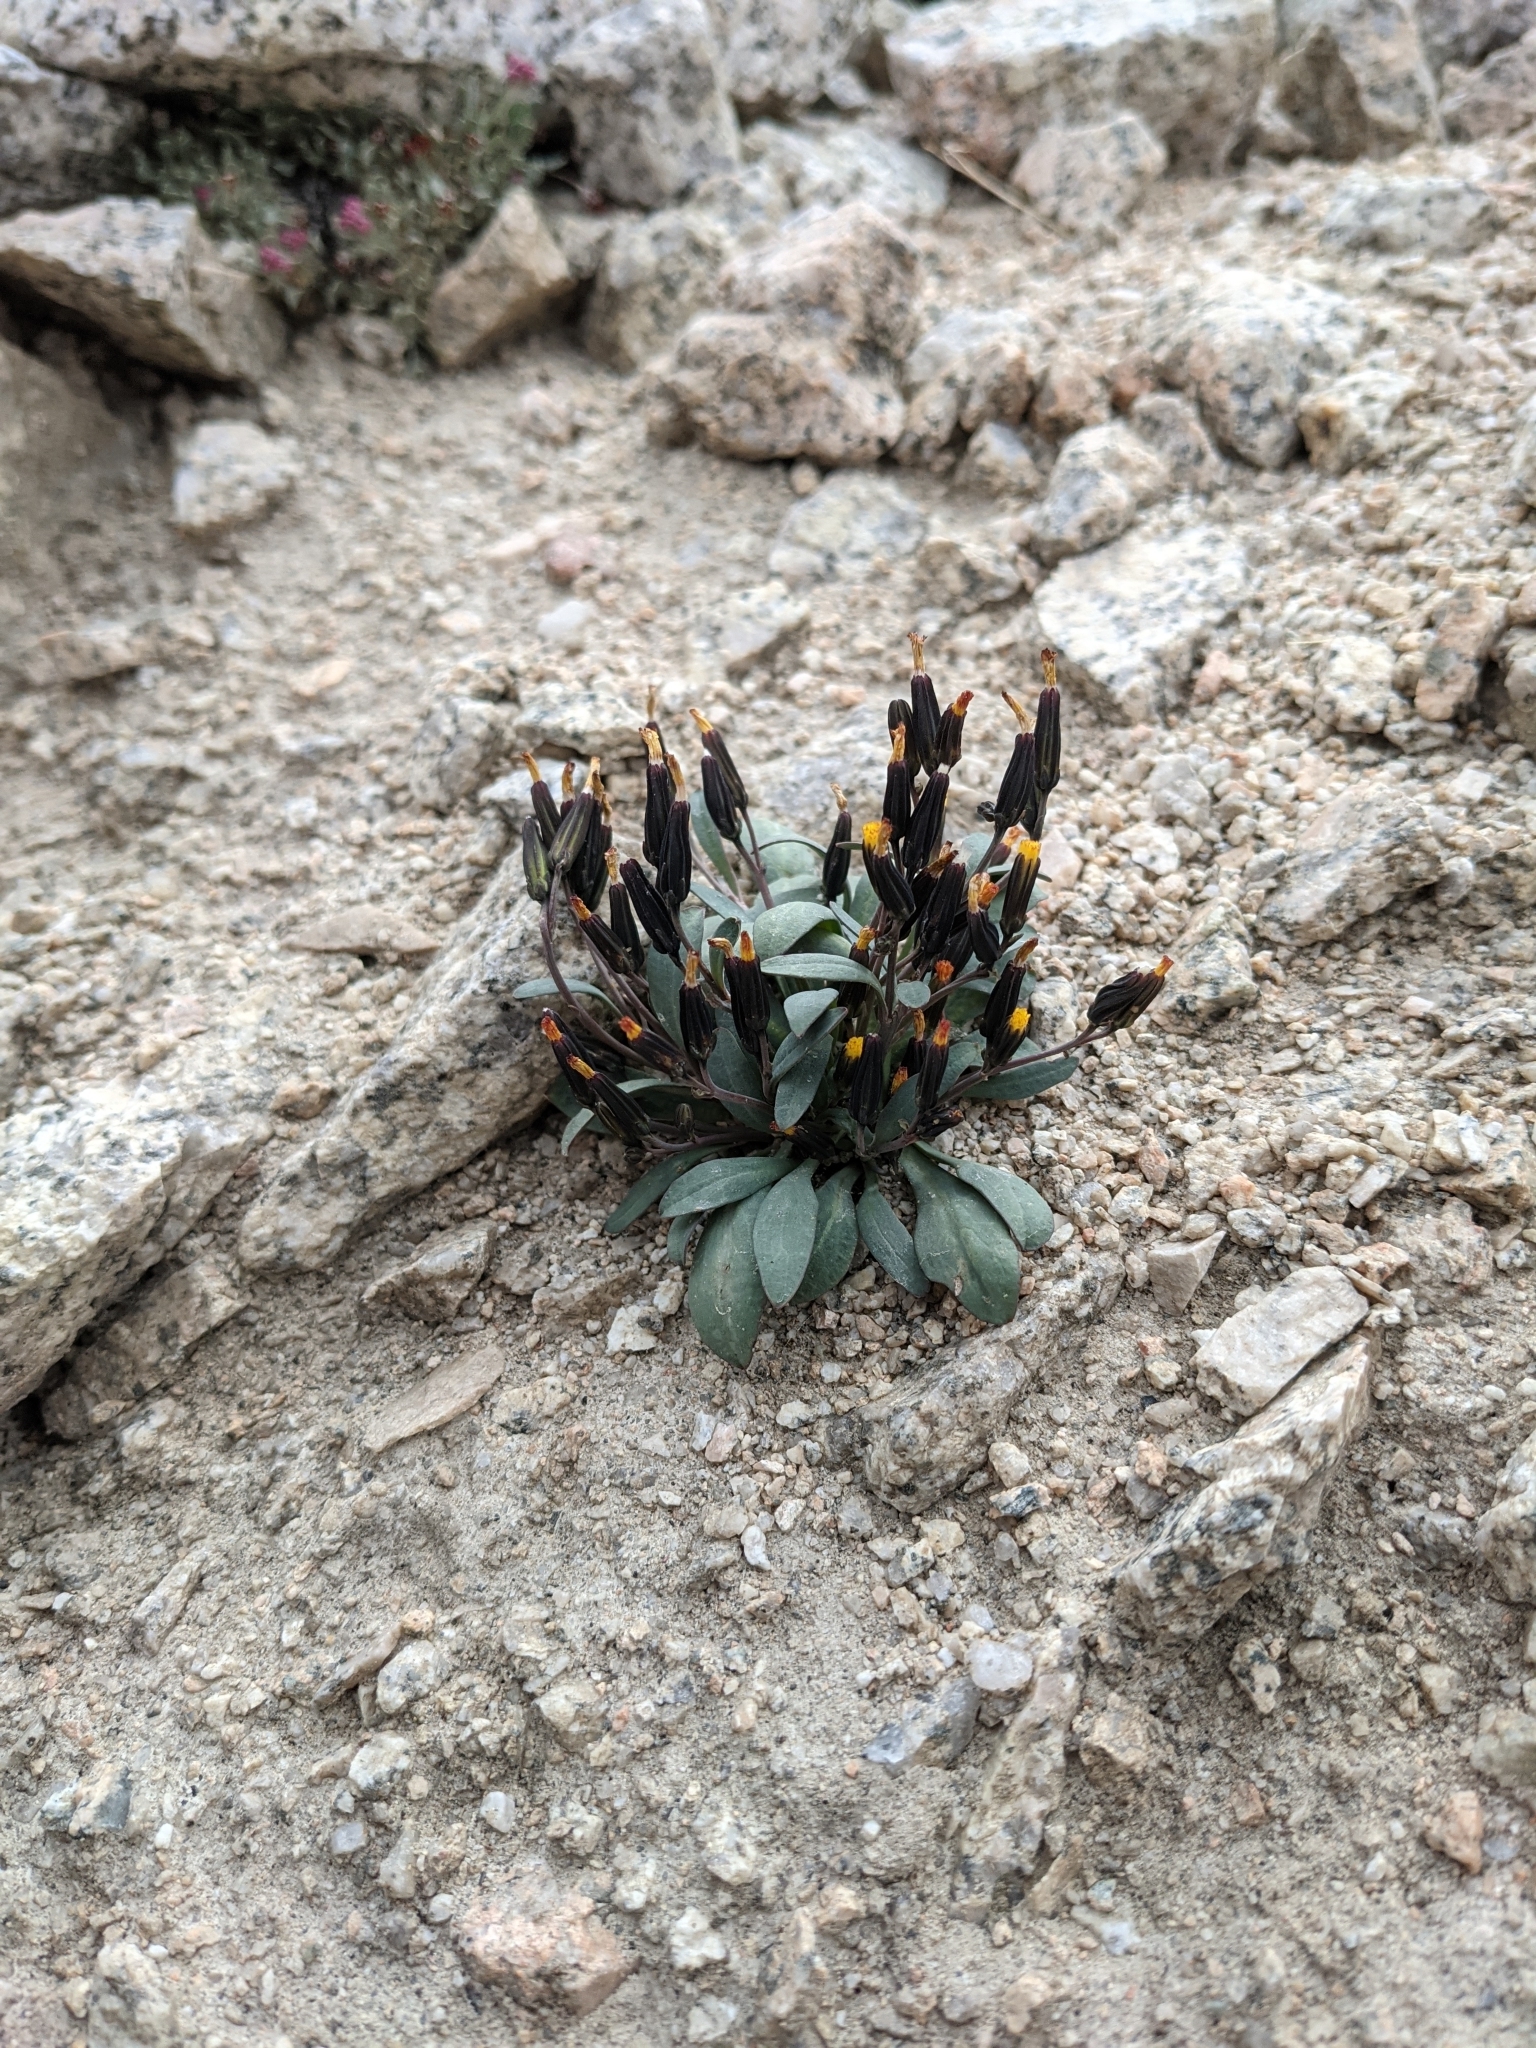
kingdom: Plantae
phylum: Tracheophyta
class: Magnoliopsida
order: Asterales
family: Asteraceae
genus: Askellia
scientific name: Askellia pygmaea
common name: Dwarf alpine hawksbeard
